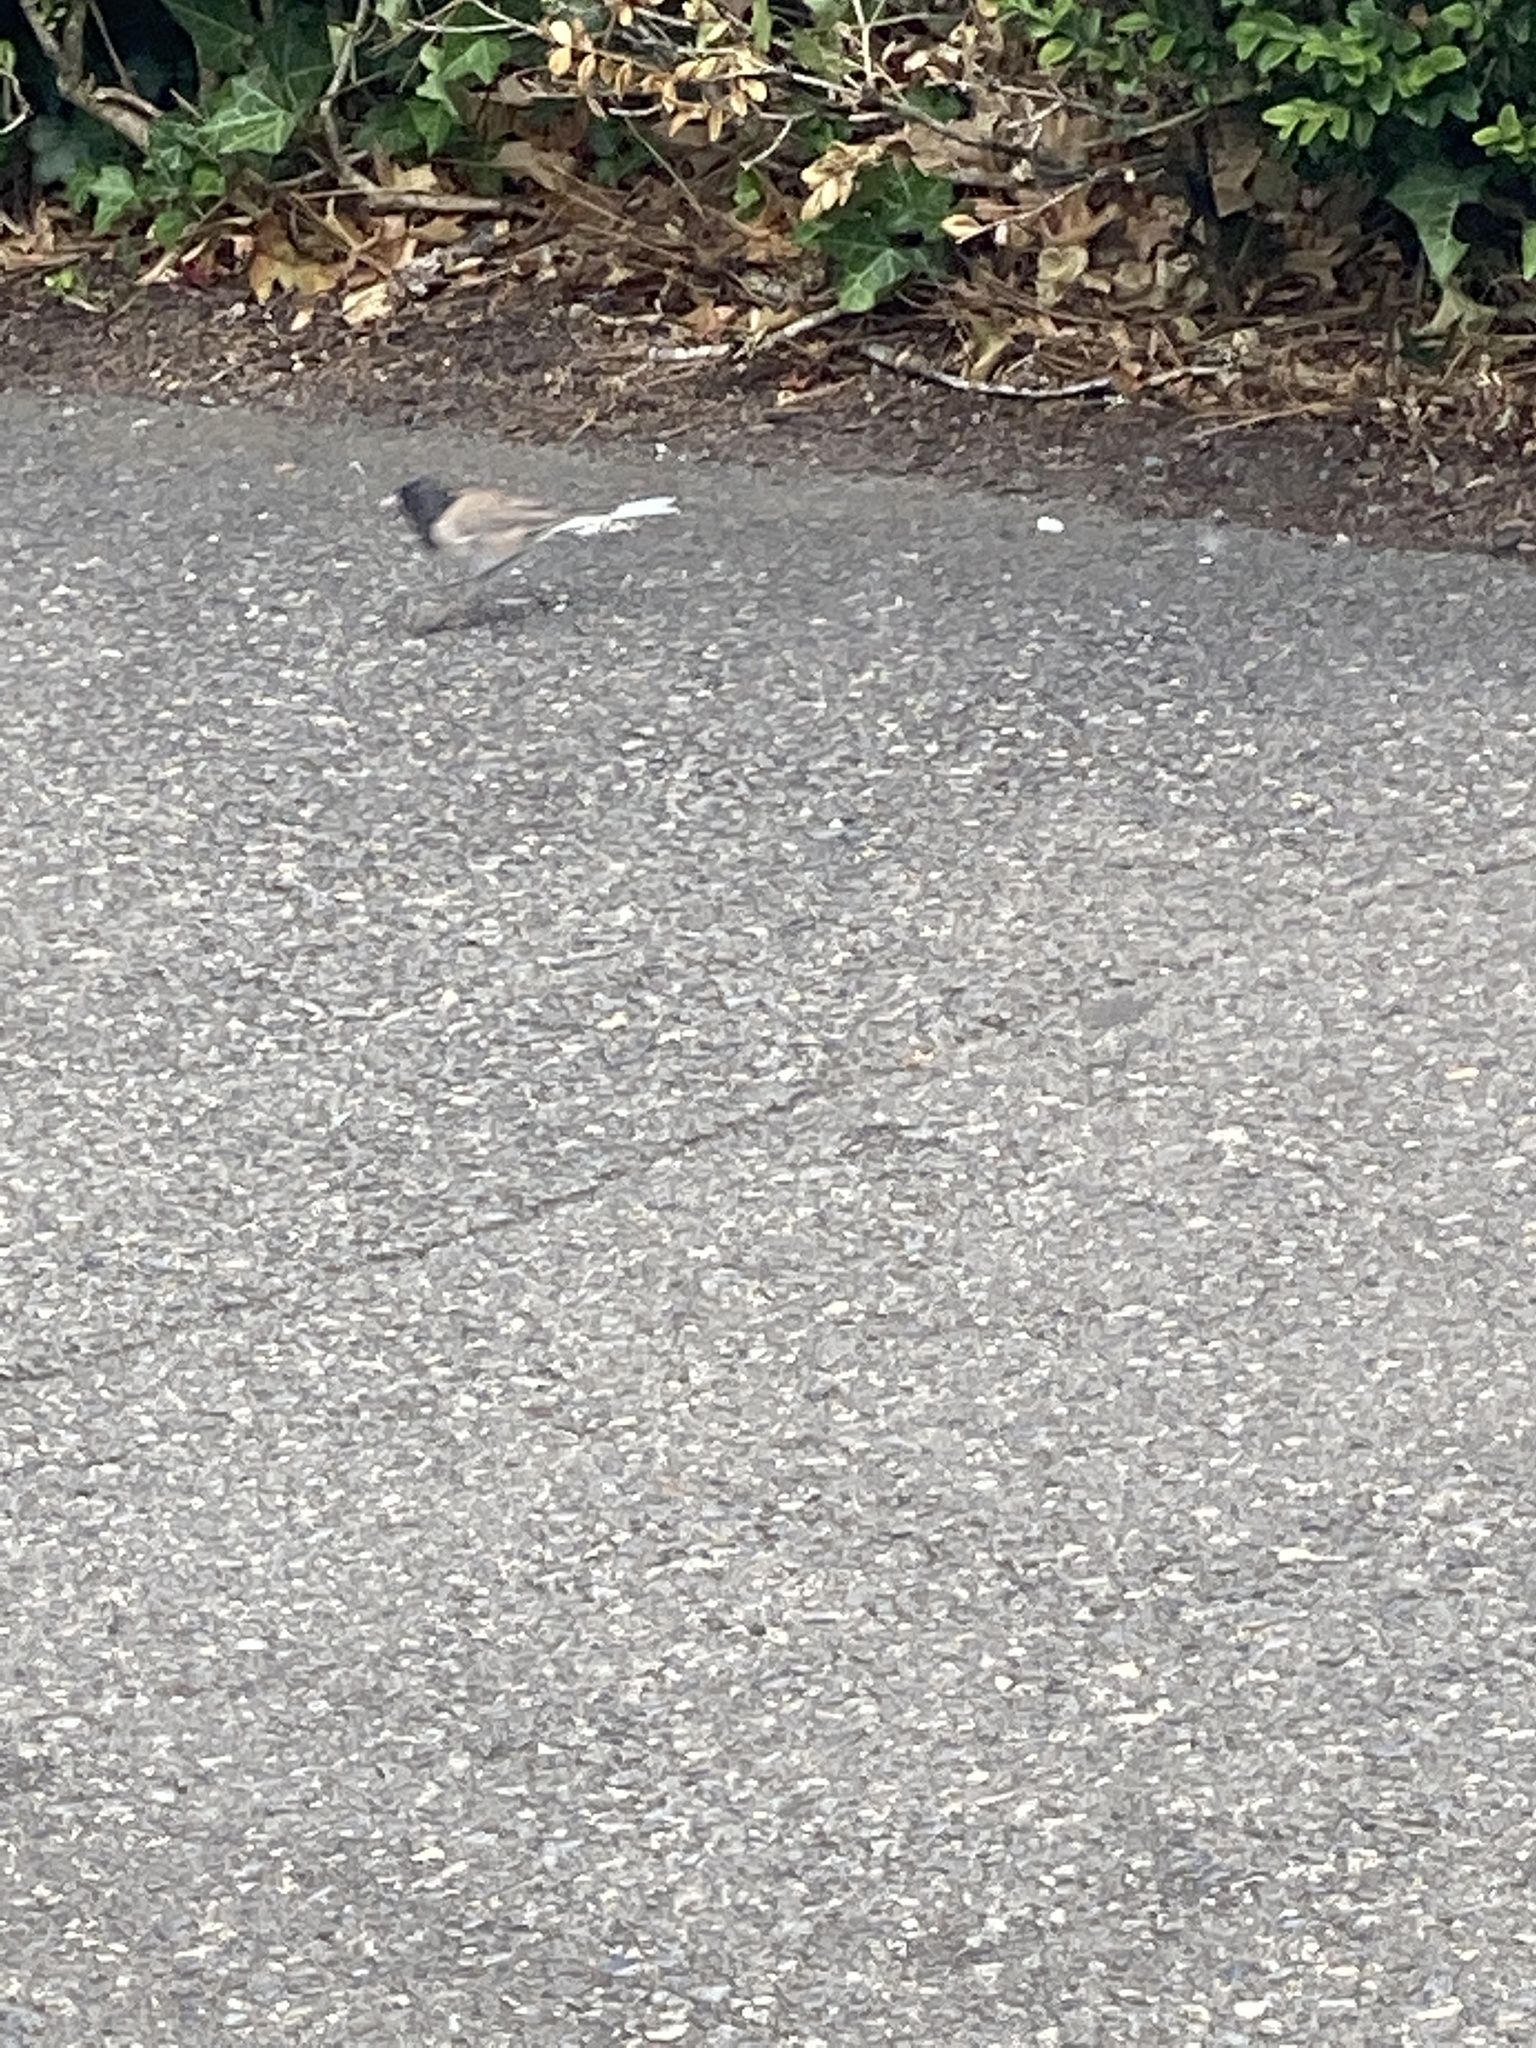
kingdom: Animalia
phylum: Chordata
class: Aves
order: Passeriformes
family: Passerellidae
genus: Junco
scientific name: Junco hyemalis
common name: Dark-eyed junco
